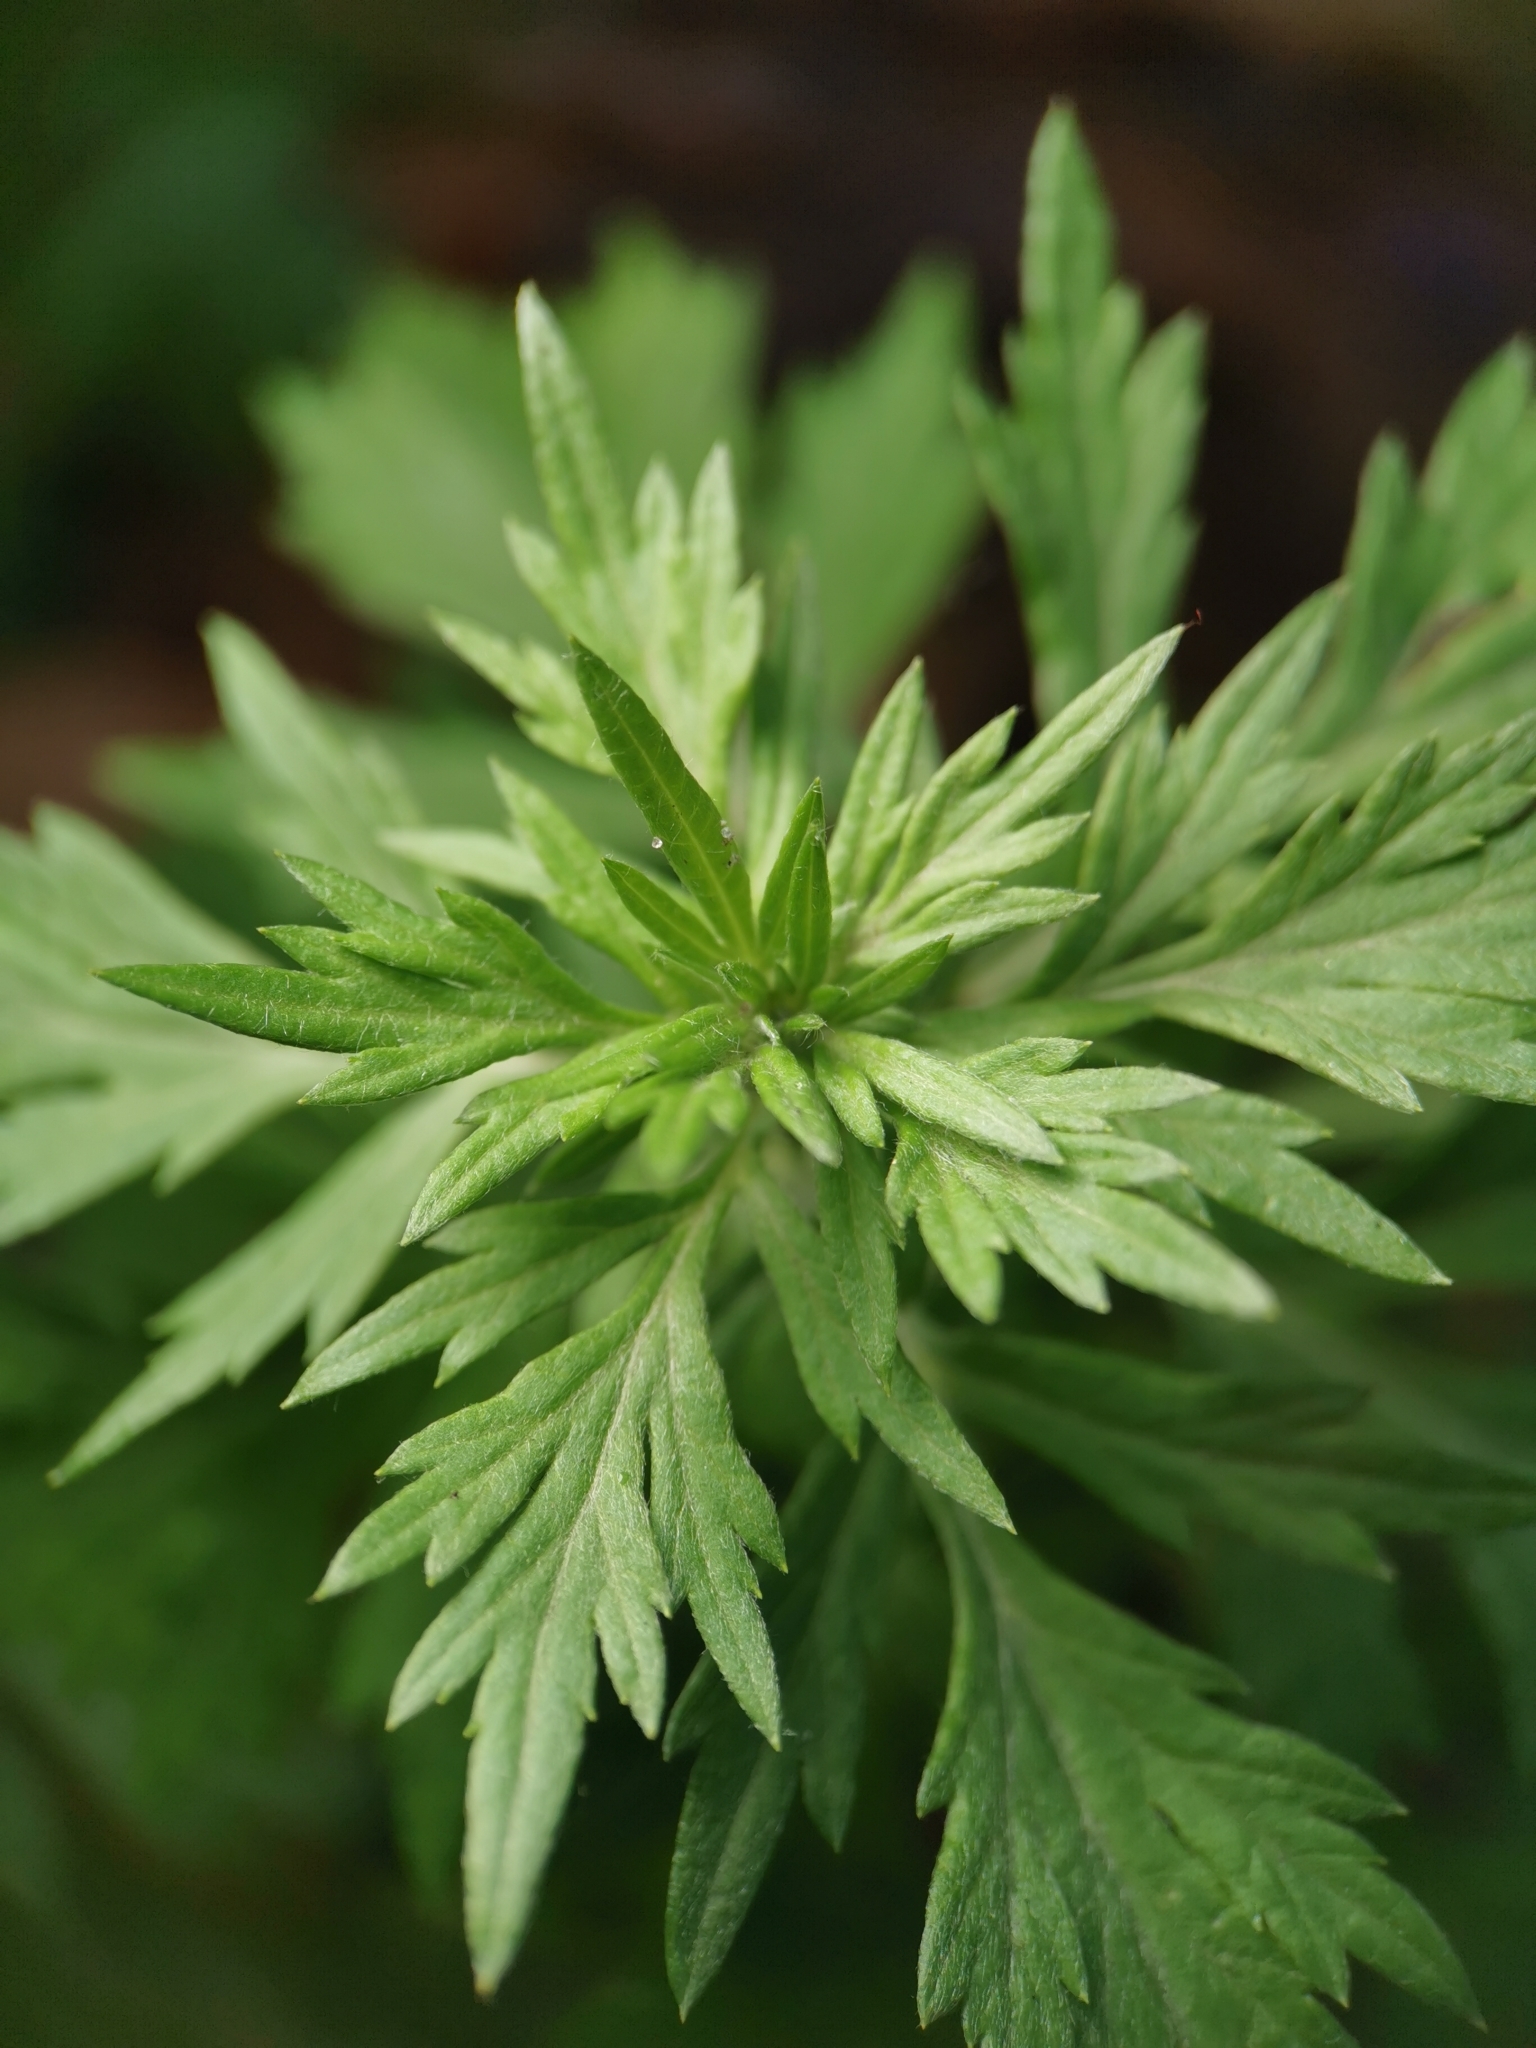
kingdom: Plantae
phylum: Tracheophyta
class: Magnoliopsida
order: Asterales
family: Asteraceae
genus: Artemisia
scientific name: Artemisia vulgaris
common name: Mugwort
